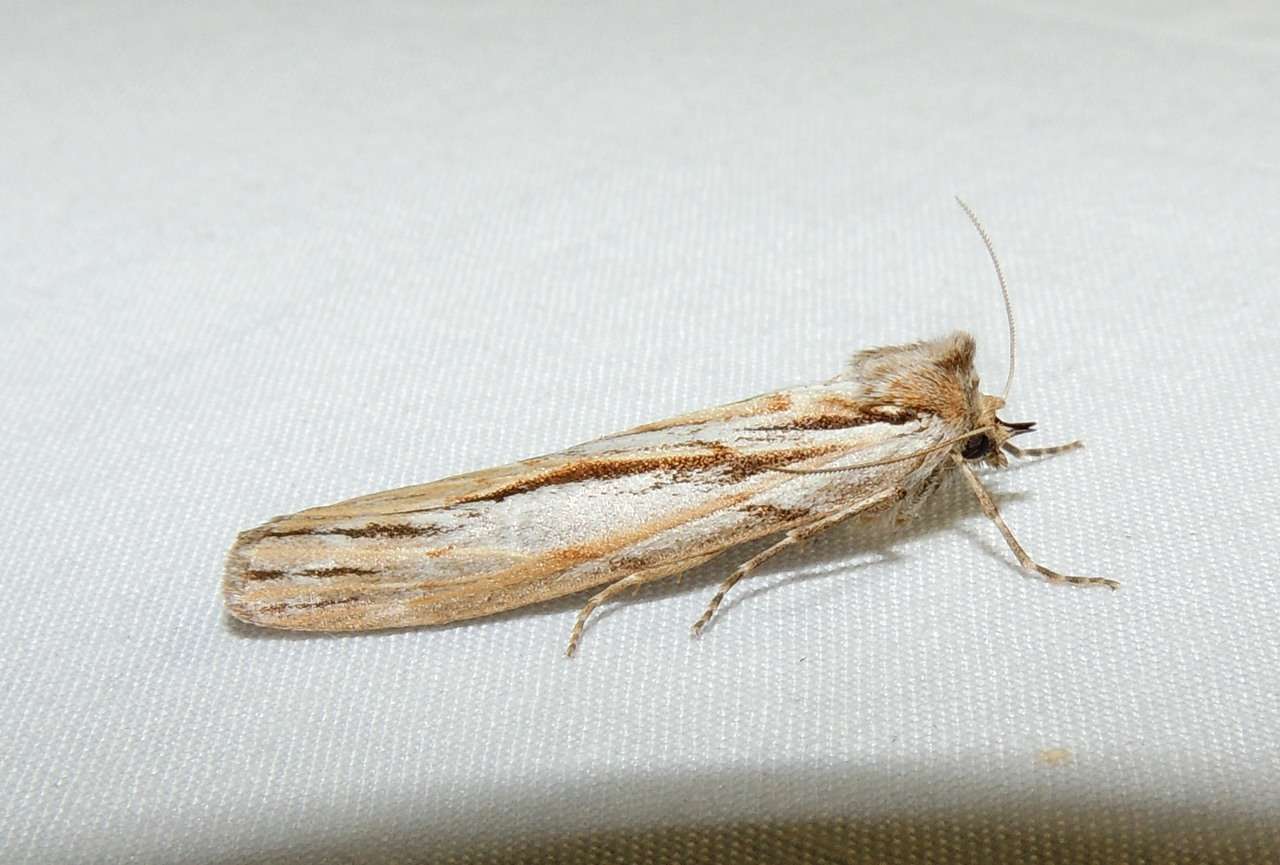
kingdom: Animalia
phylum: Arthropoda
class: Insecta
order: Lepidoptera
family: Geometridae
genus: Ciampa
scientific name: Ciampa arietaria
